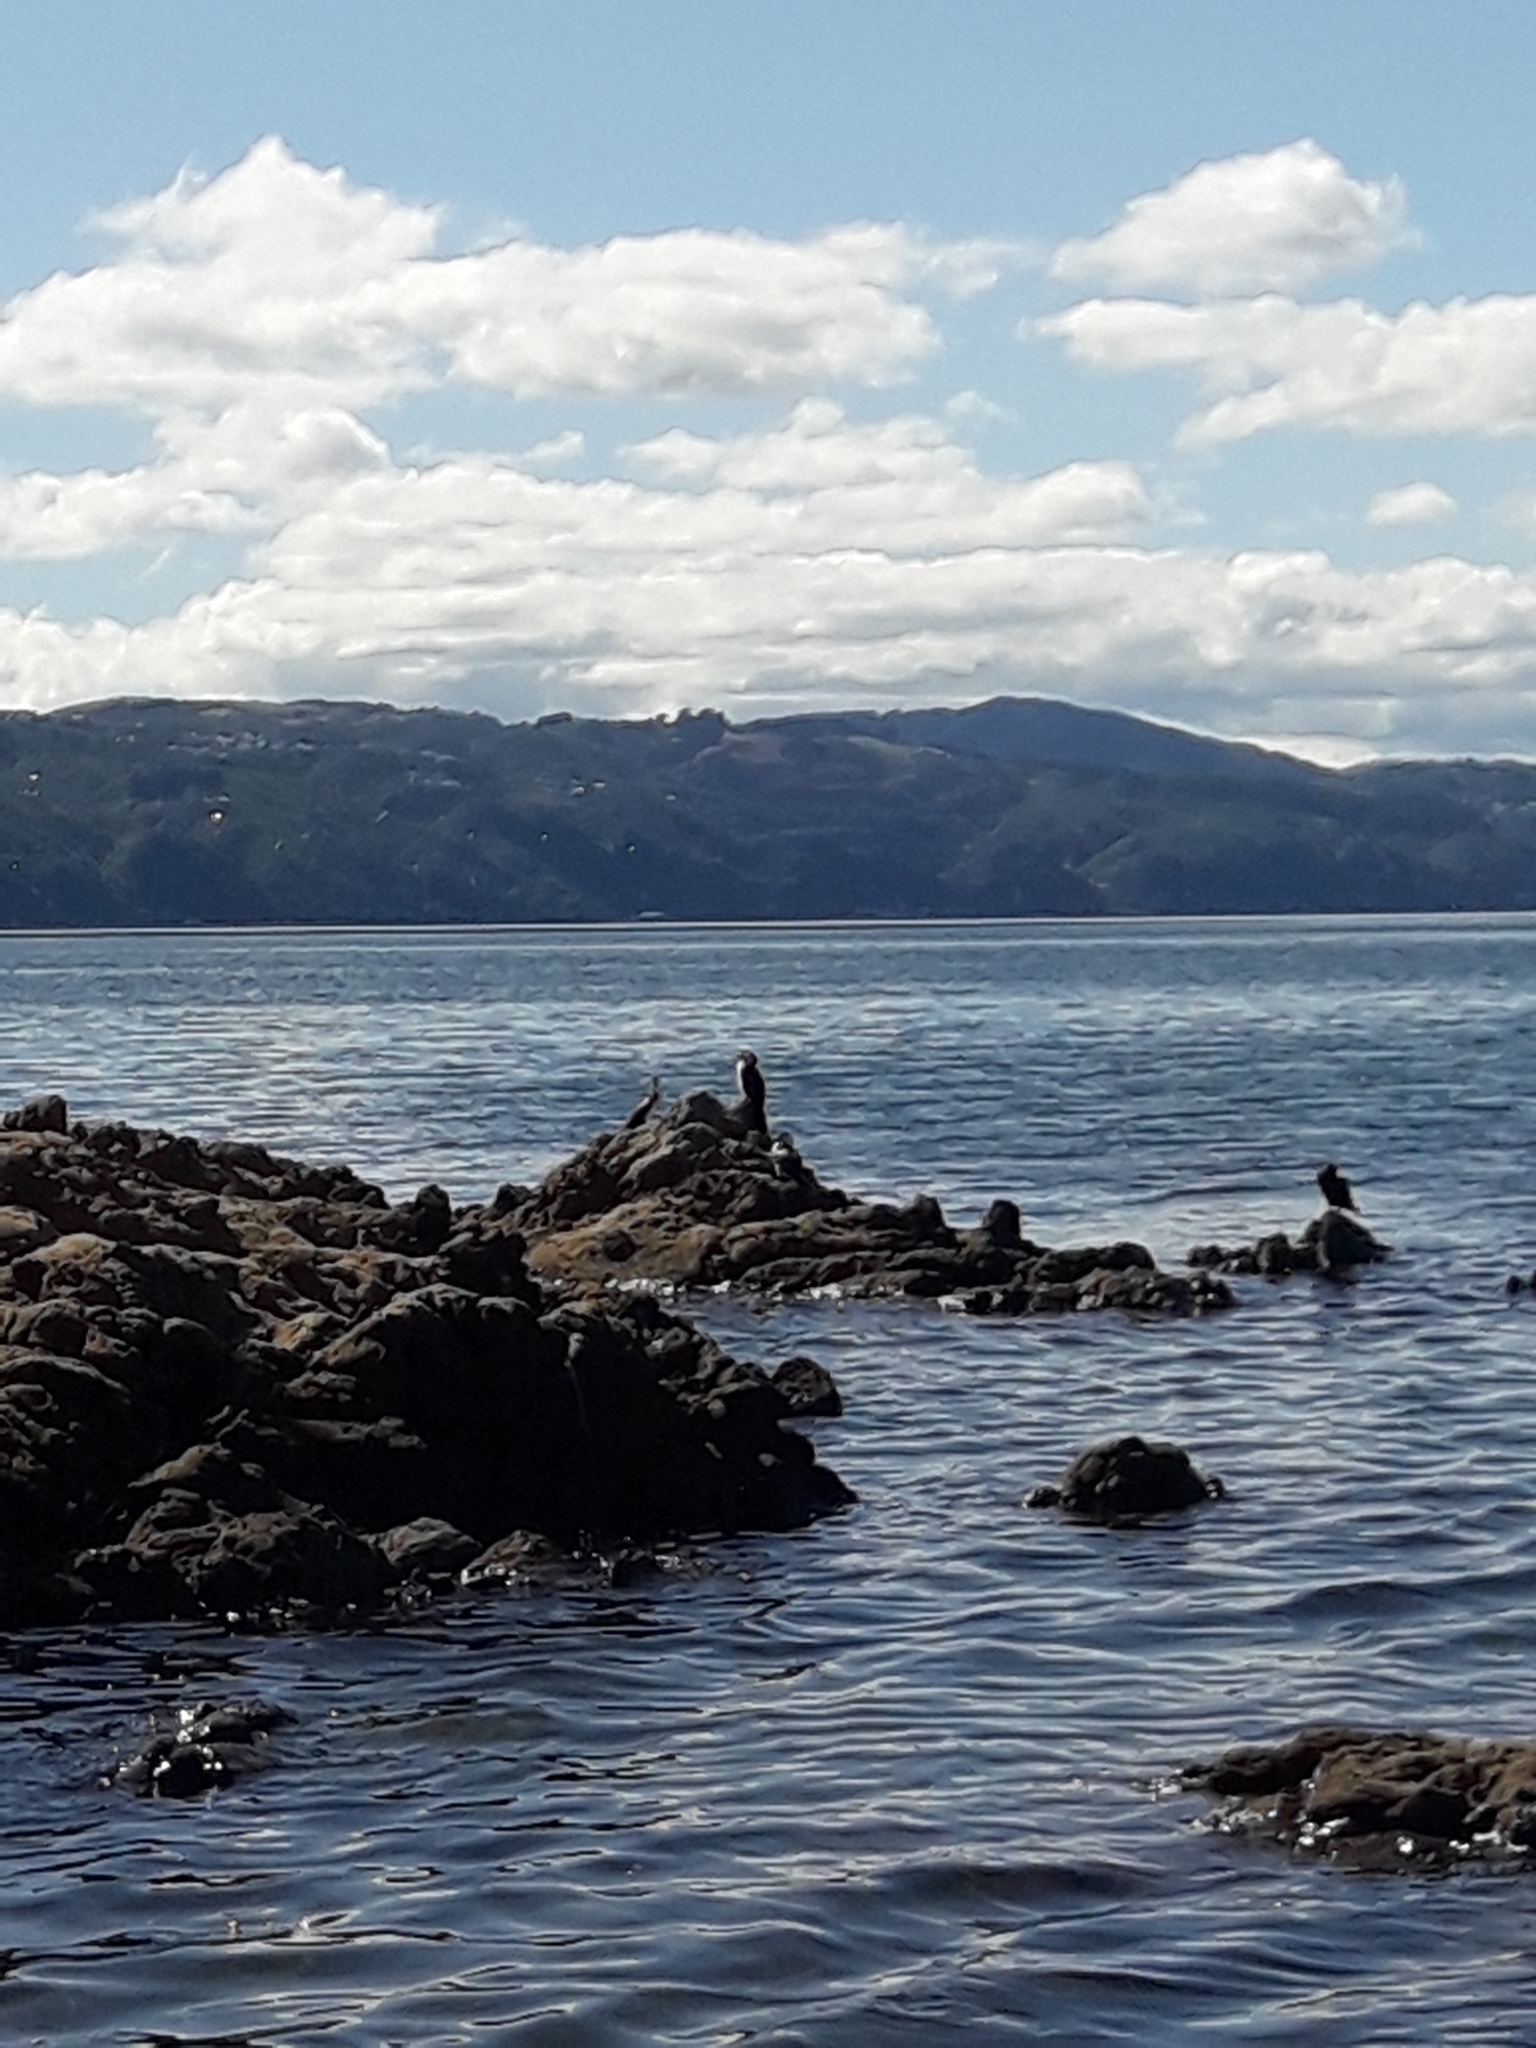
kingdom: Animalia
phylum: Chordata
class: Aves
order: Suliformes
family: Phalacrocoracidae
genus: Microcarbo
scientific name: Microcarbo melanoleucos
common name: Little pied cormorant
